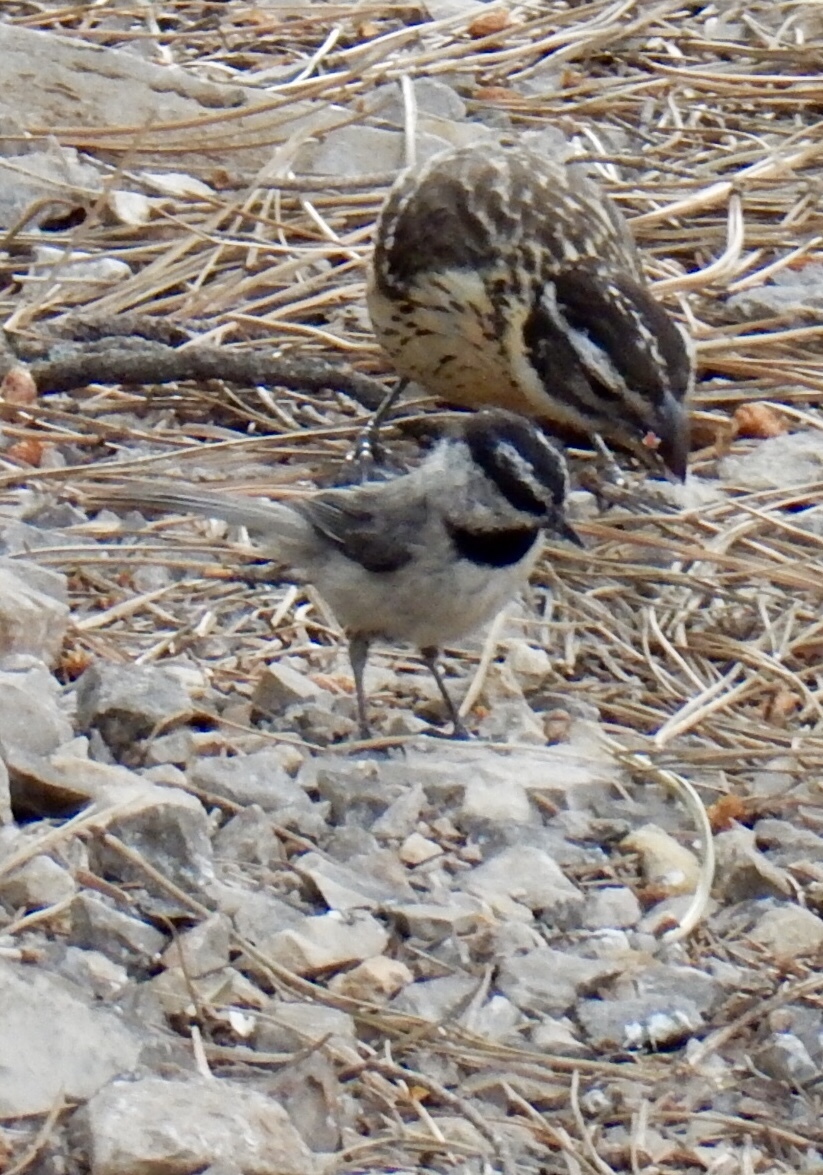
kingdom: Animalia
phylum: Chordata
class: Aves
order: Passeriformes
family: Paridae
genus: Poecile
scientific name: Poecile gambeli
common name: Mountain chickadee
